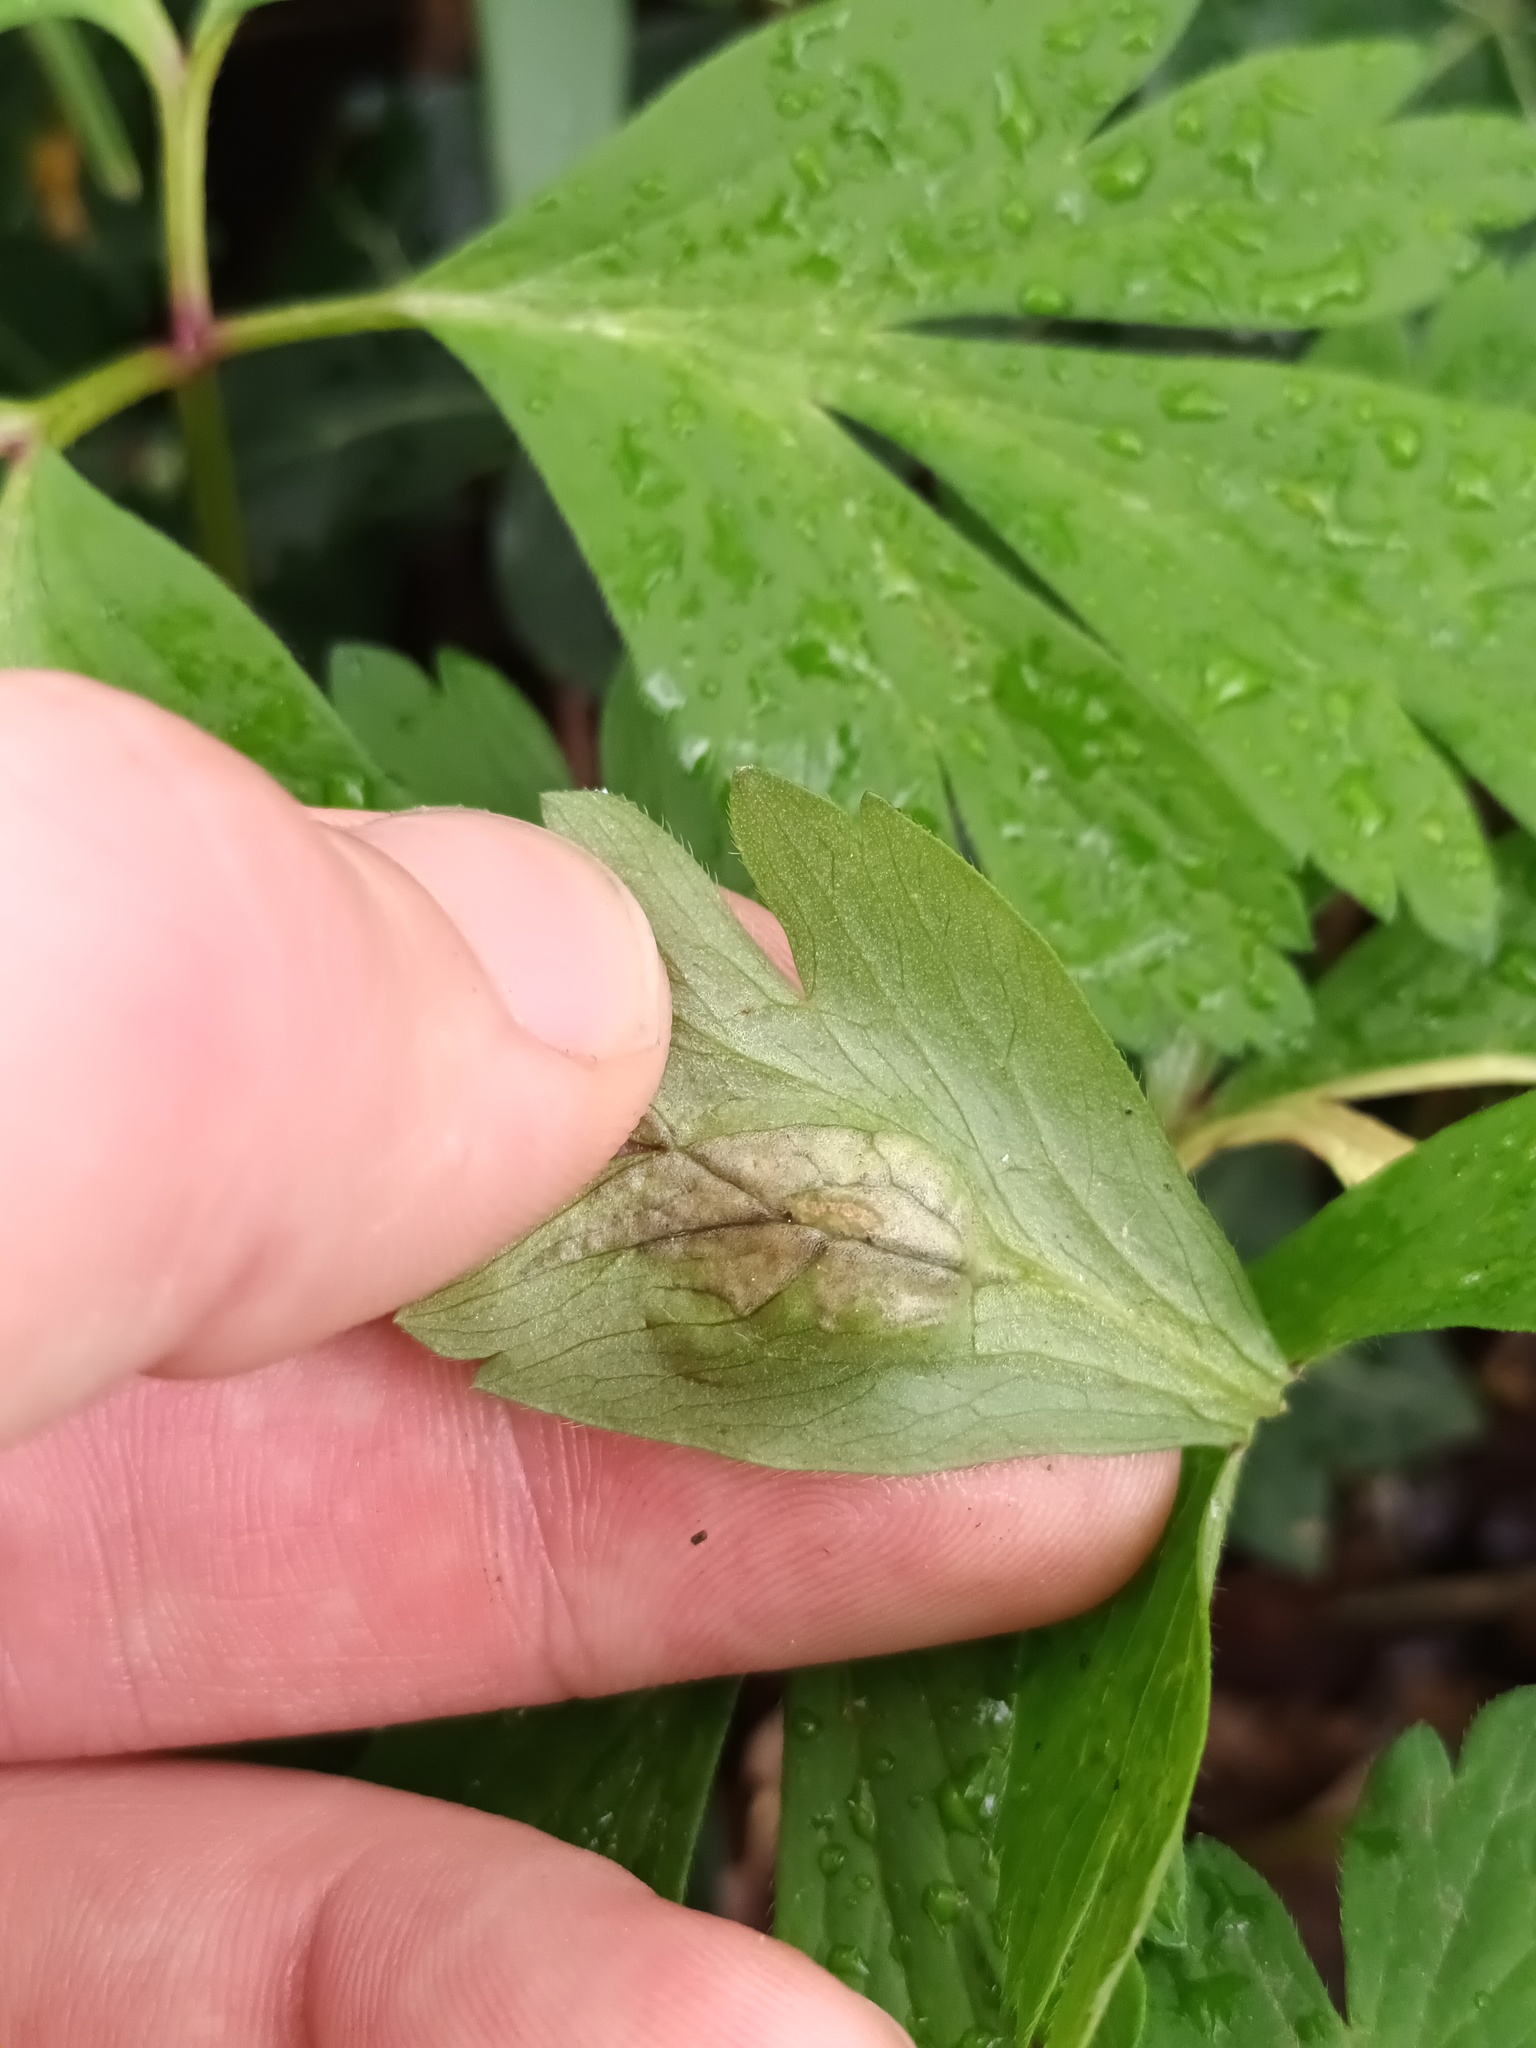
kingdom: Fungi
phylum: Basidiomycota
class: Ustilaginomycetes
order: Urocystidales
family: Urocystidaceae
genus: Urocystis
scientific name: Urocystis anemones
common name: Anemone smut
